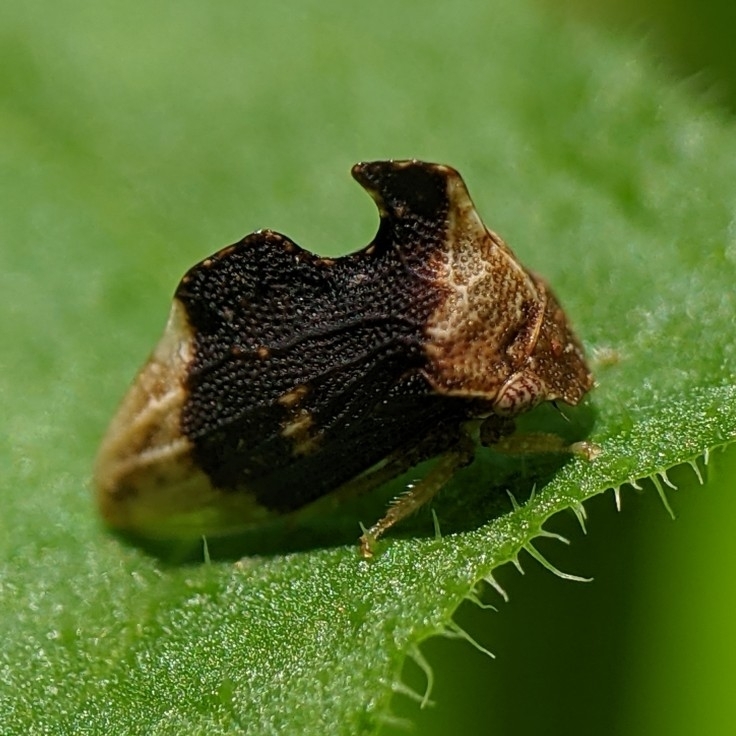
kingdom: Animalia
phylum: Arthropoda
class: Insecta
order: Hemiptera
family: Membracidae
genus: Entylia
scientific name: Entylia carinata
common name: Keeled treehopper
